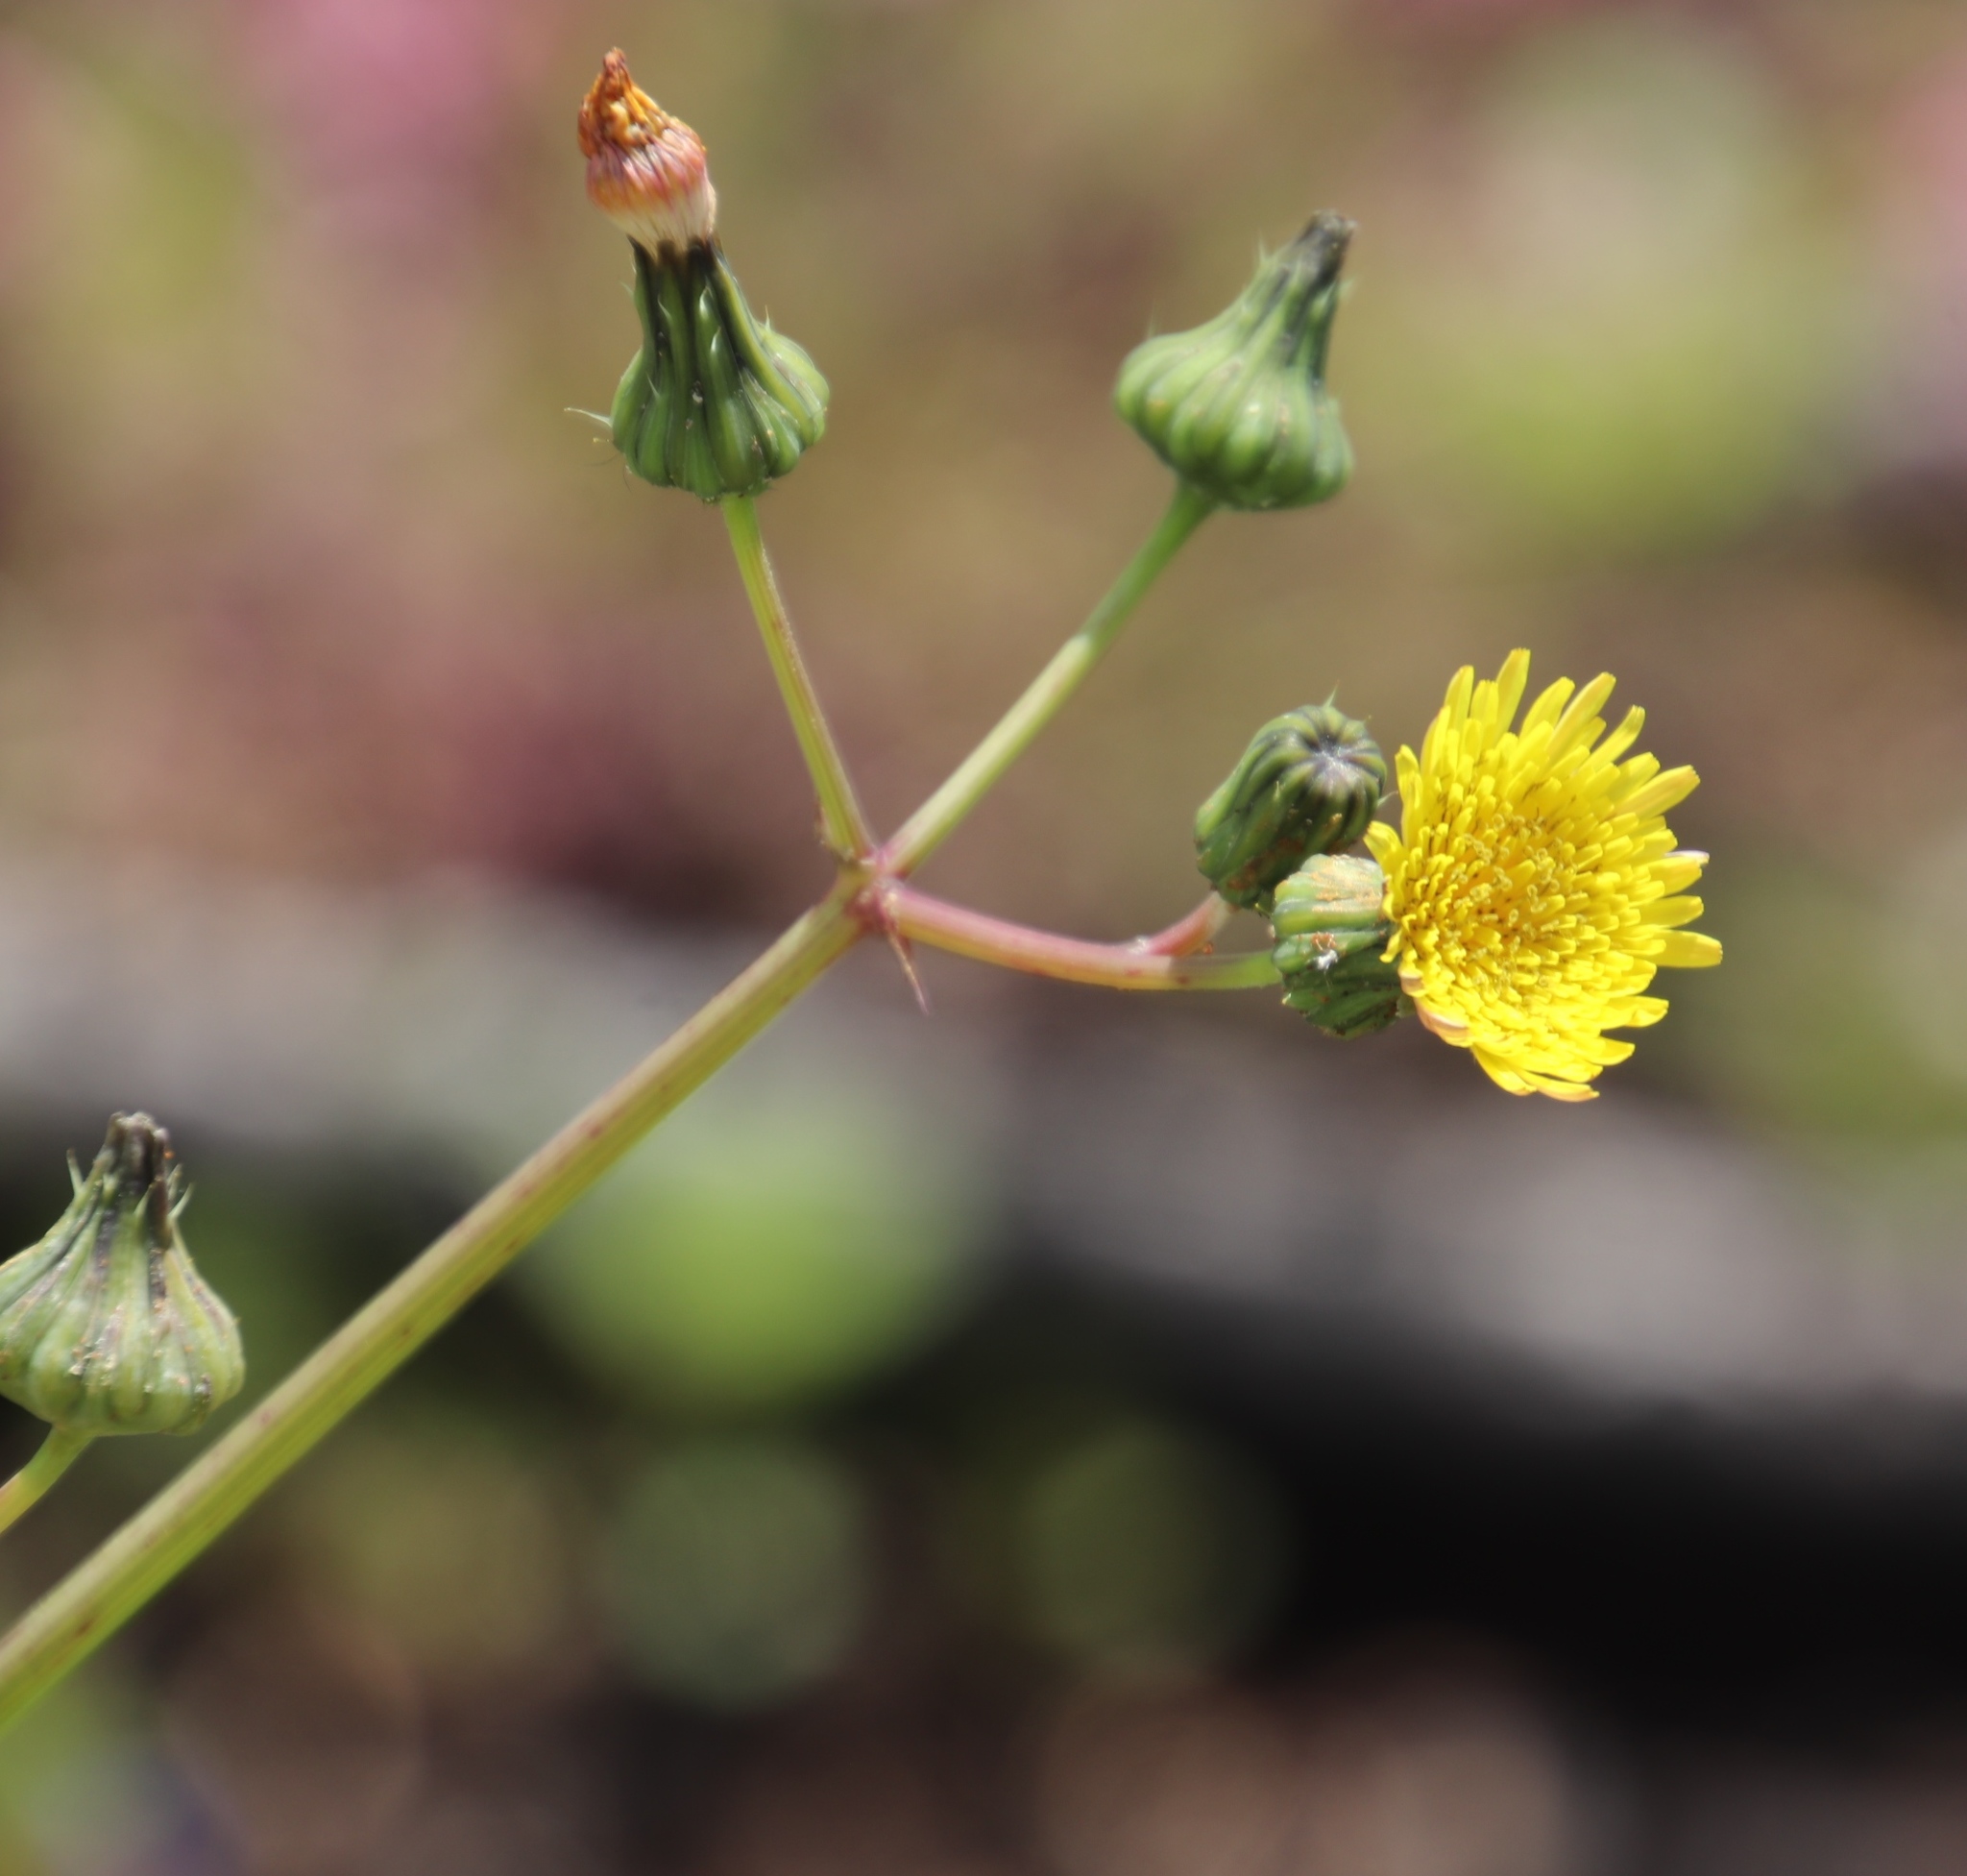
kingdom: Plantae
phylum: Tracheophyta
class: Magnoliopsida
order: Asterales
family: Asteraceae
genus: Sonchus
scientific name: Sonchus oleraceus
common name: Common sowthistle
